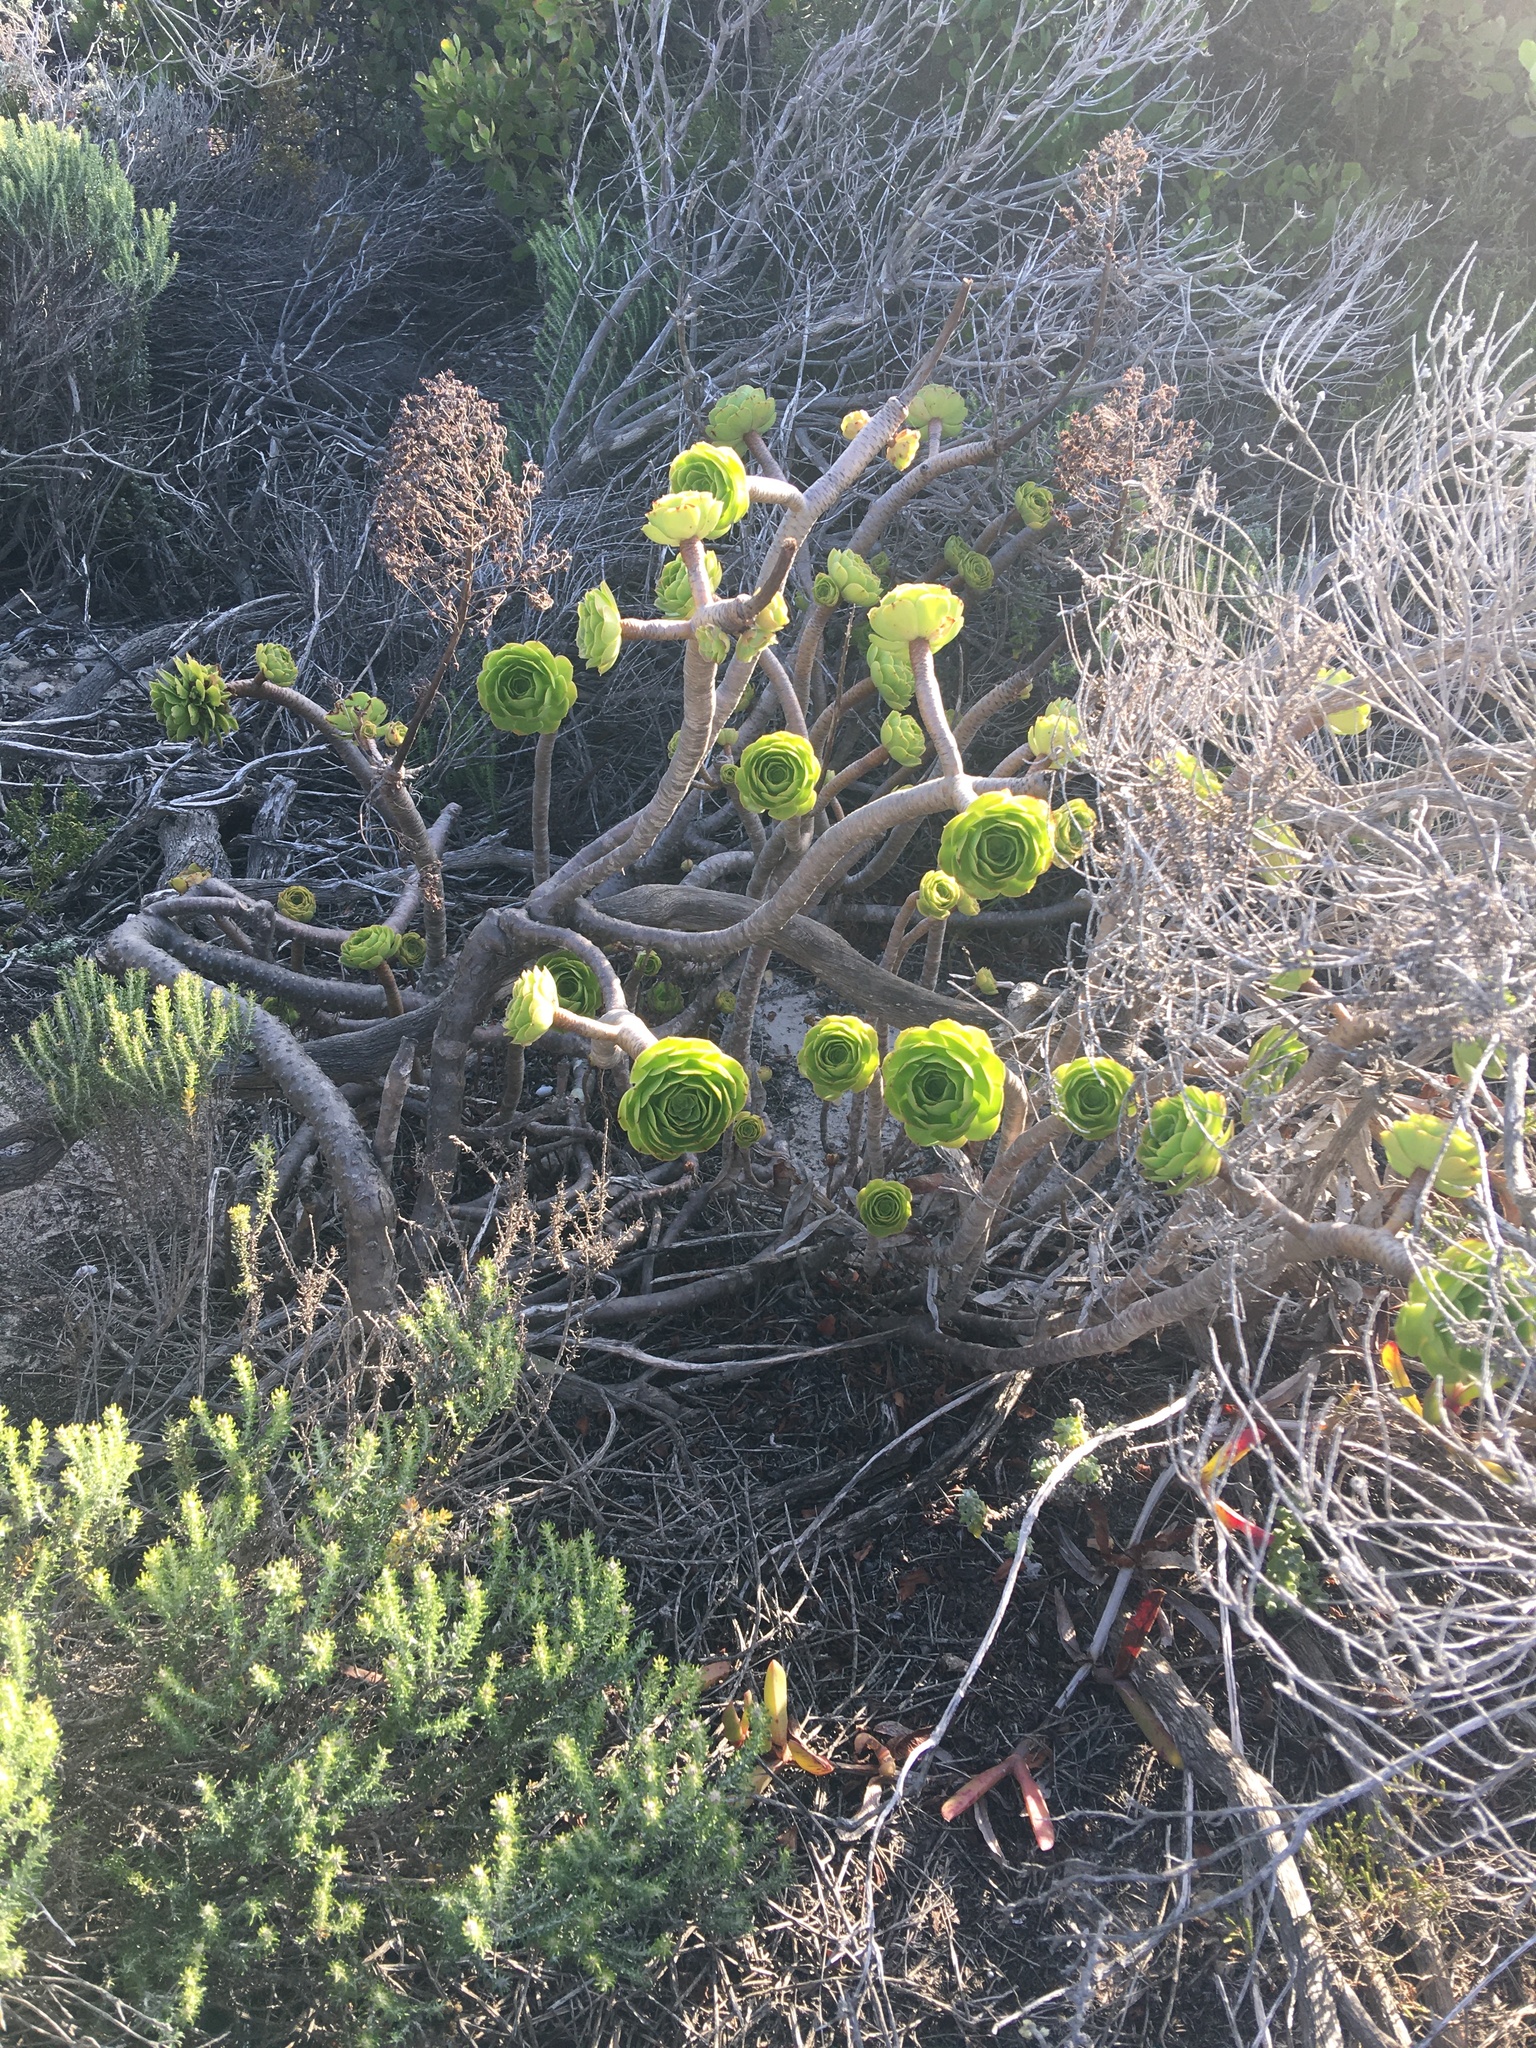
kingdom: Plantae
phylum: Tracheophyta
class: Magnoliopsida
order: Saxifragales
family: Crassulaceae
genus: Aeonium
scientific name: Aeonium arboreum
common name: Tree aeonium
